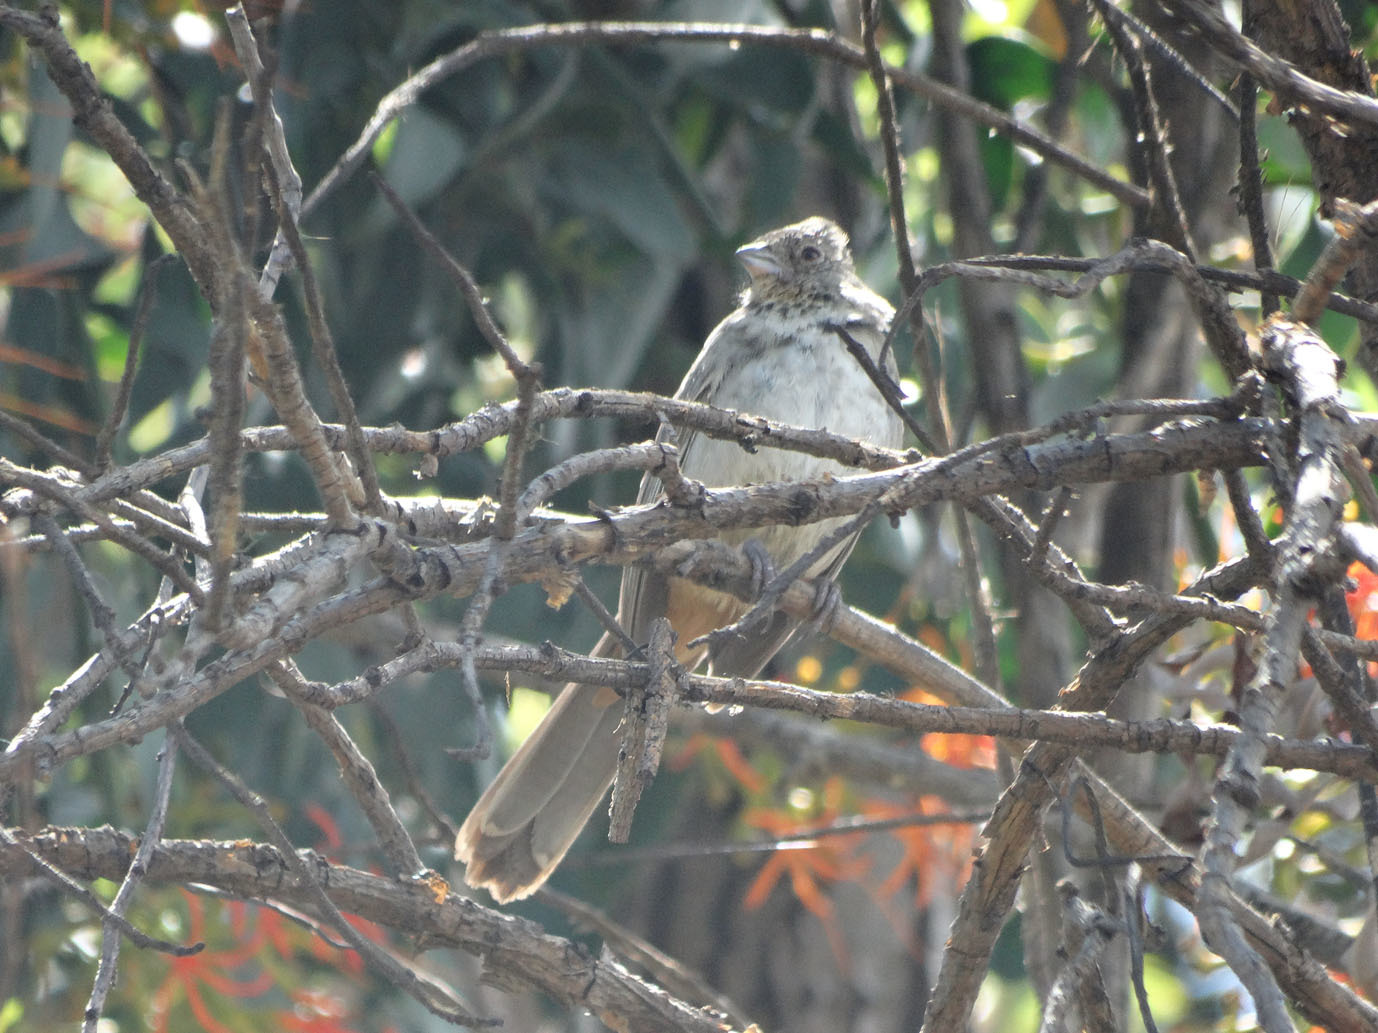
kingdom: Animalia
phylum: Chordata
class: Aves
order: Passeriformes
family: Passerellidae
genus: Melozone
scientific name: Melozone fusca
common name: Canyon towhee
